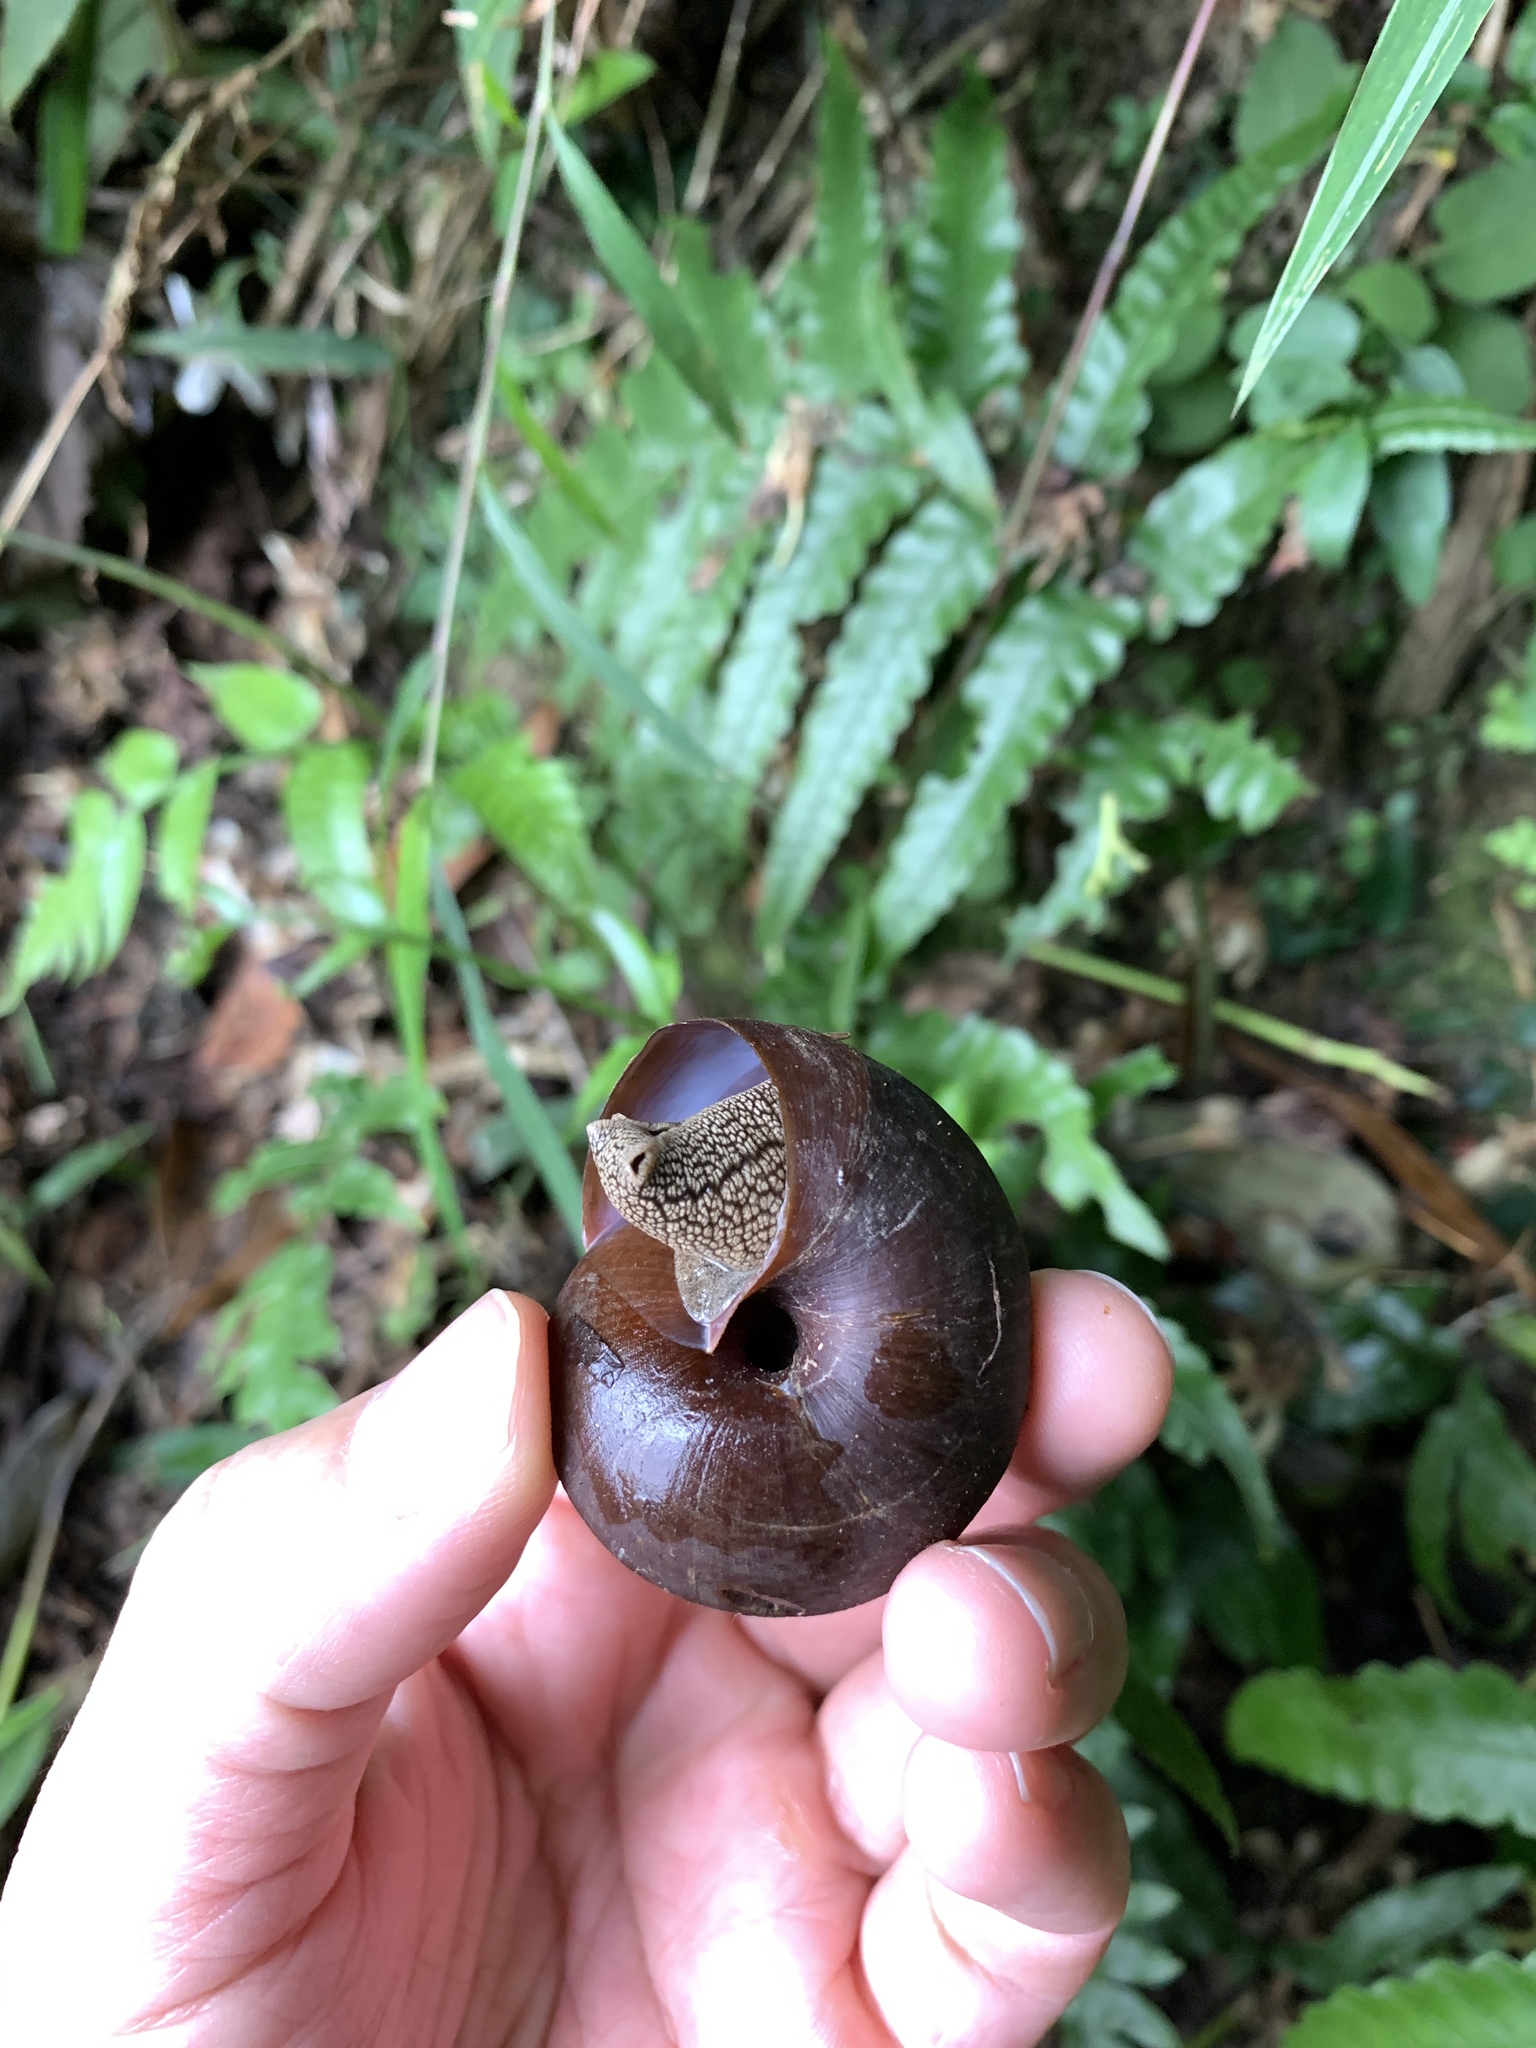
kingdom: Animalia
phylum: Mollusca
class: Gastropoda
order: Stylommatophora
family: Camaenidae
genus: Nesiohelix
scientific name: Nesiohelix swinhoei
